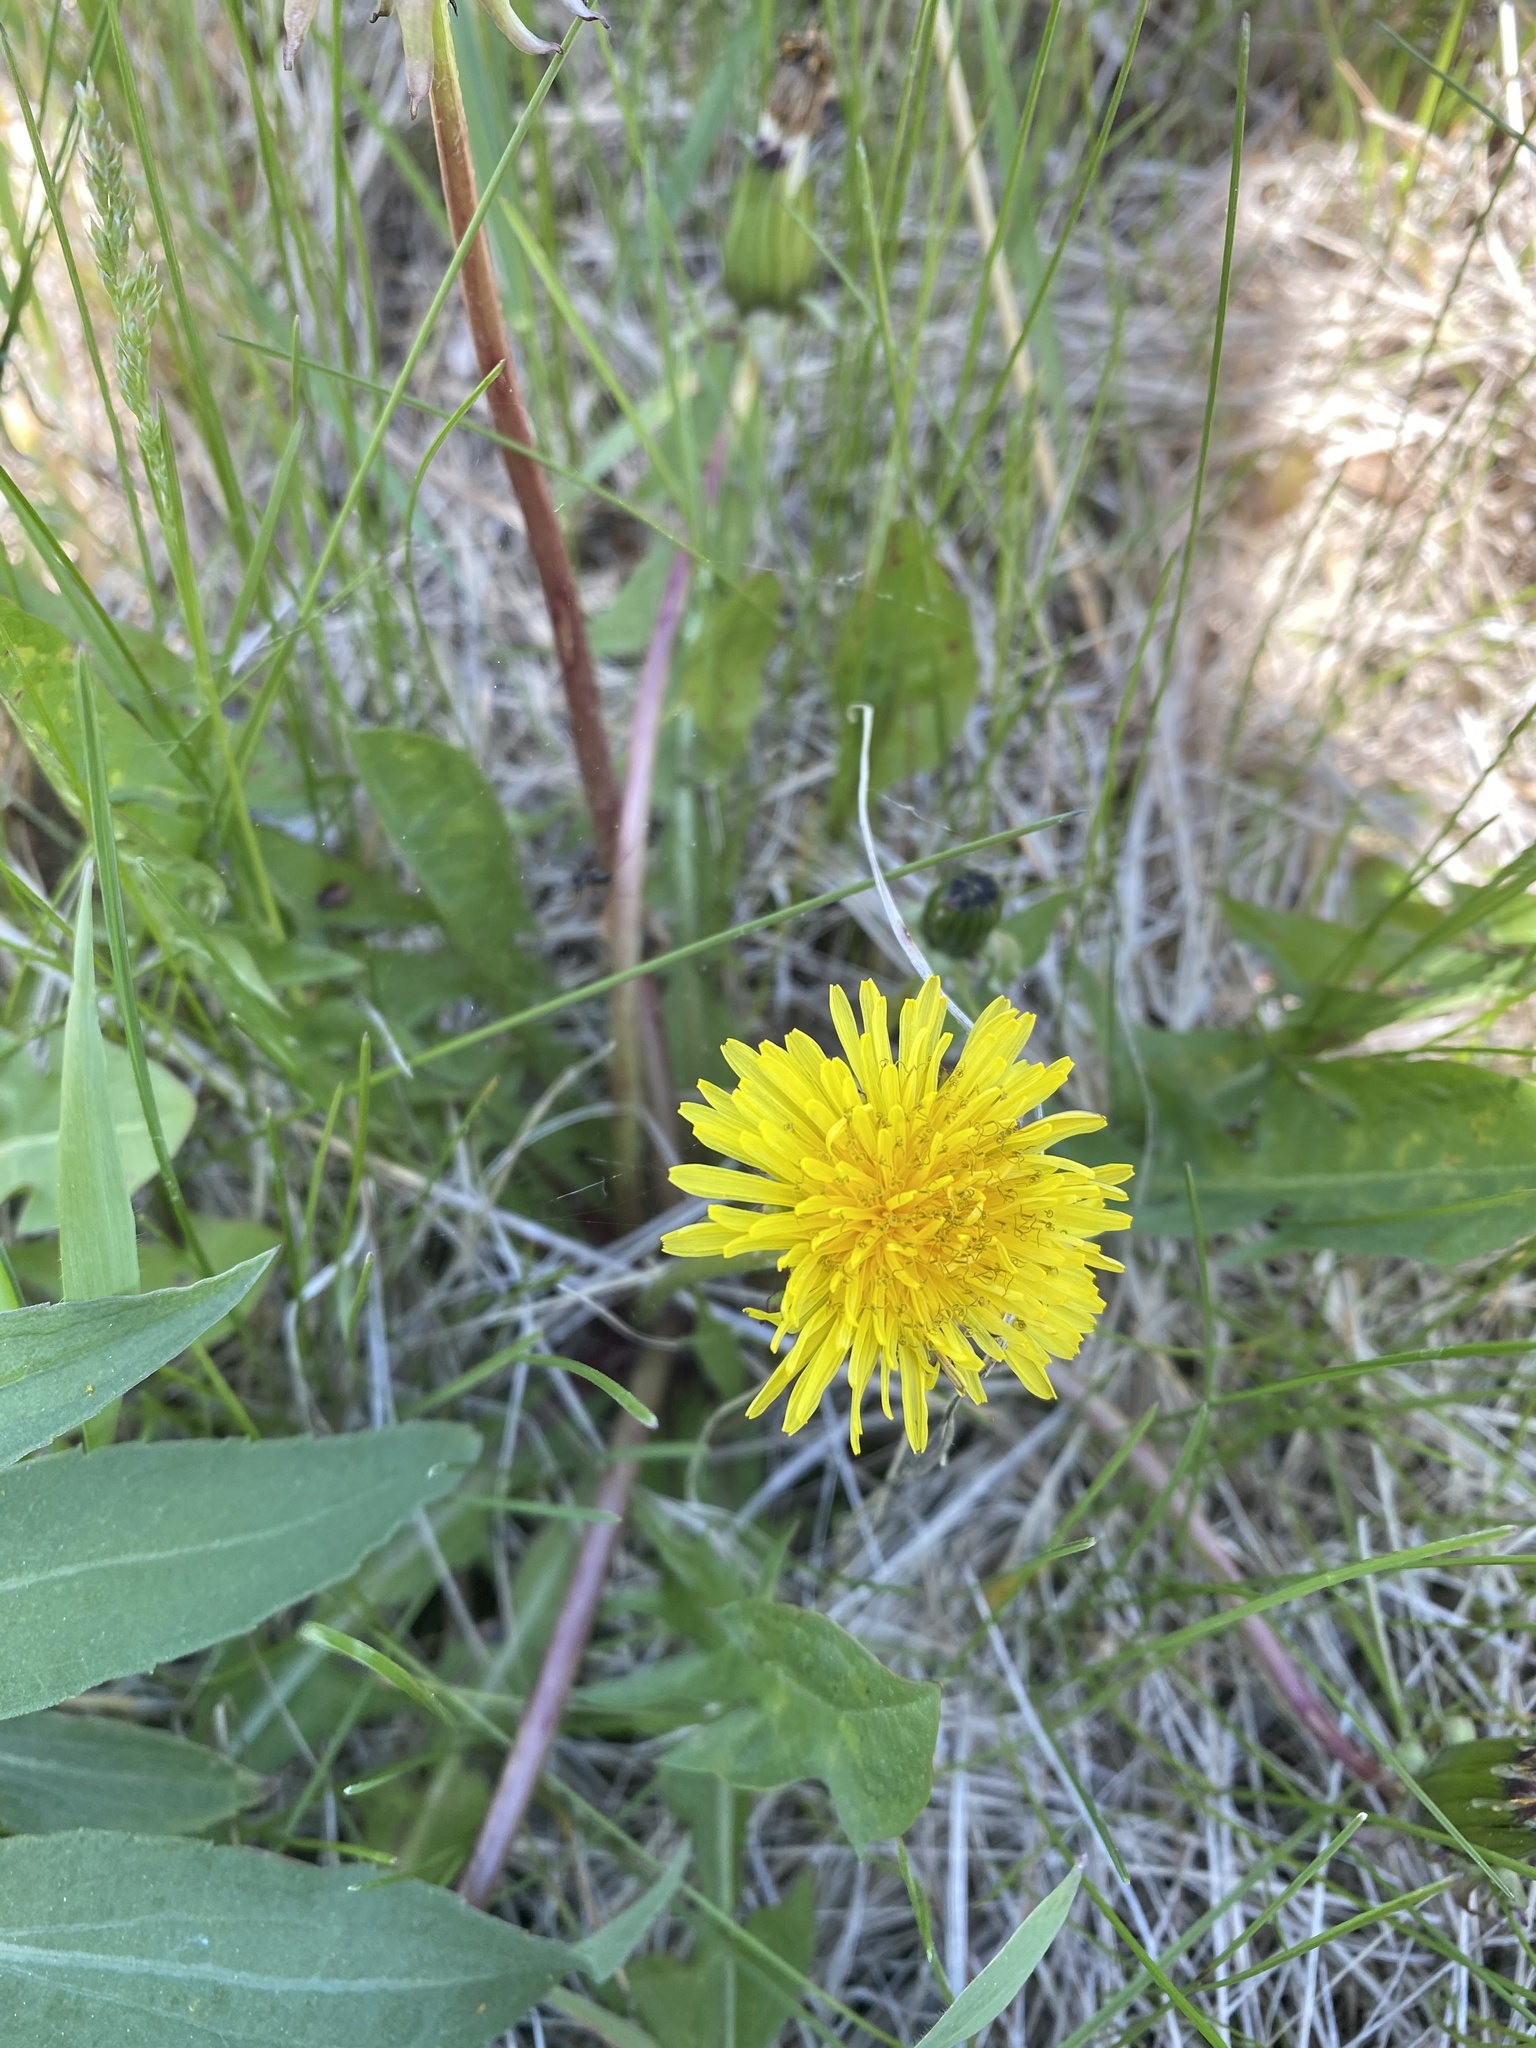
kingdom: Plantae
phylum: Tracheophyta
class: Magnoliopsida
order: Asterales
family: Asteraceae
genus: Taraxacum
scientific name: Taraxacum officinale
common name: Common dandelion
